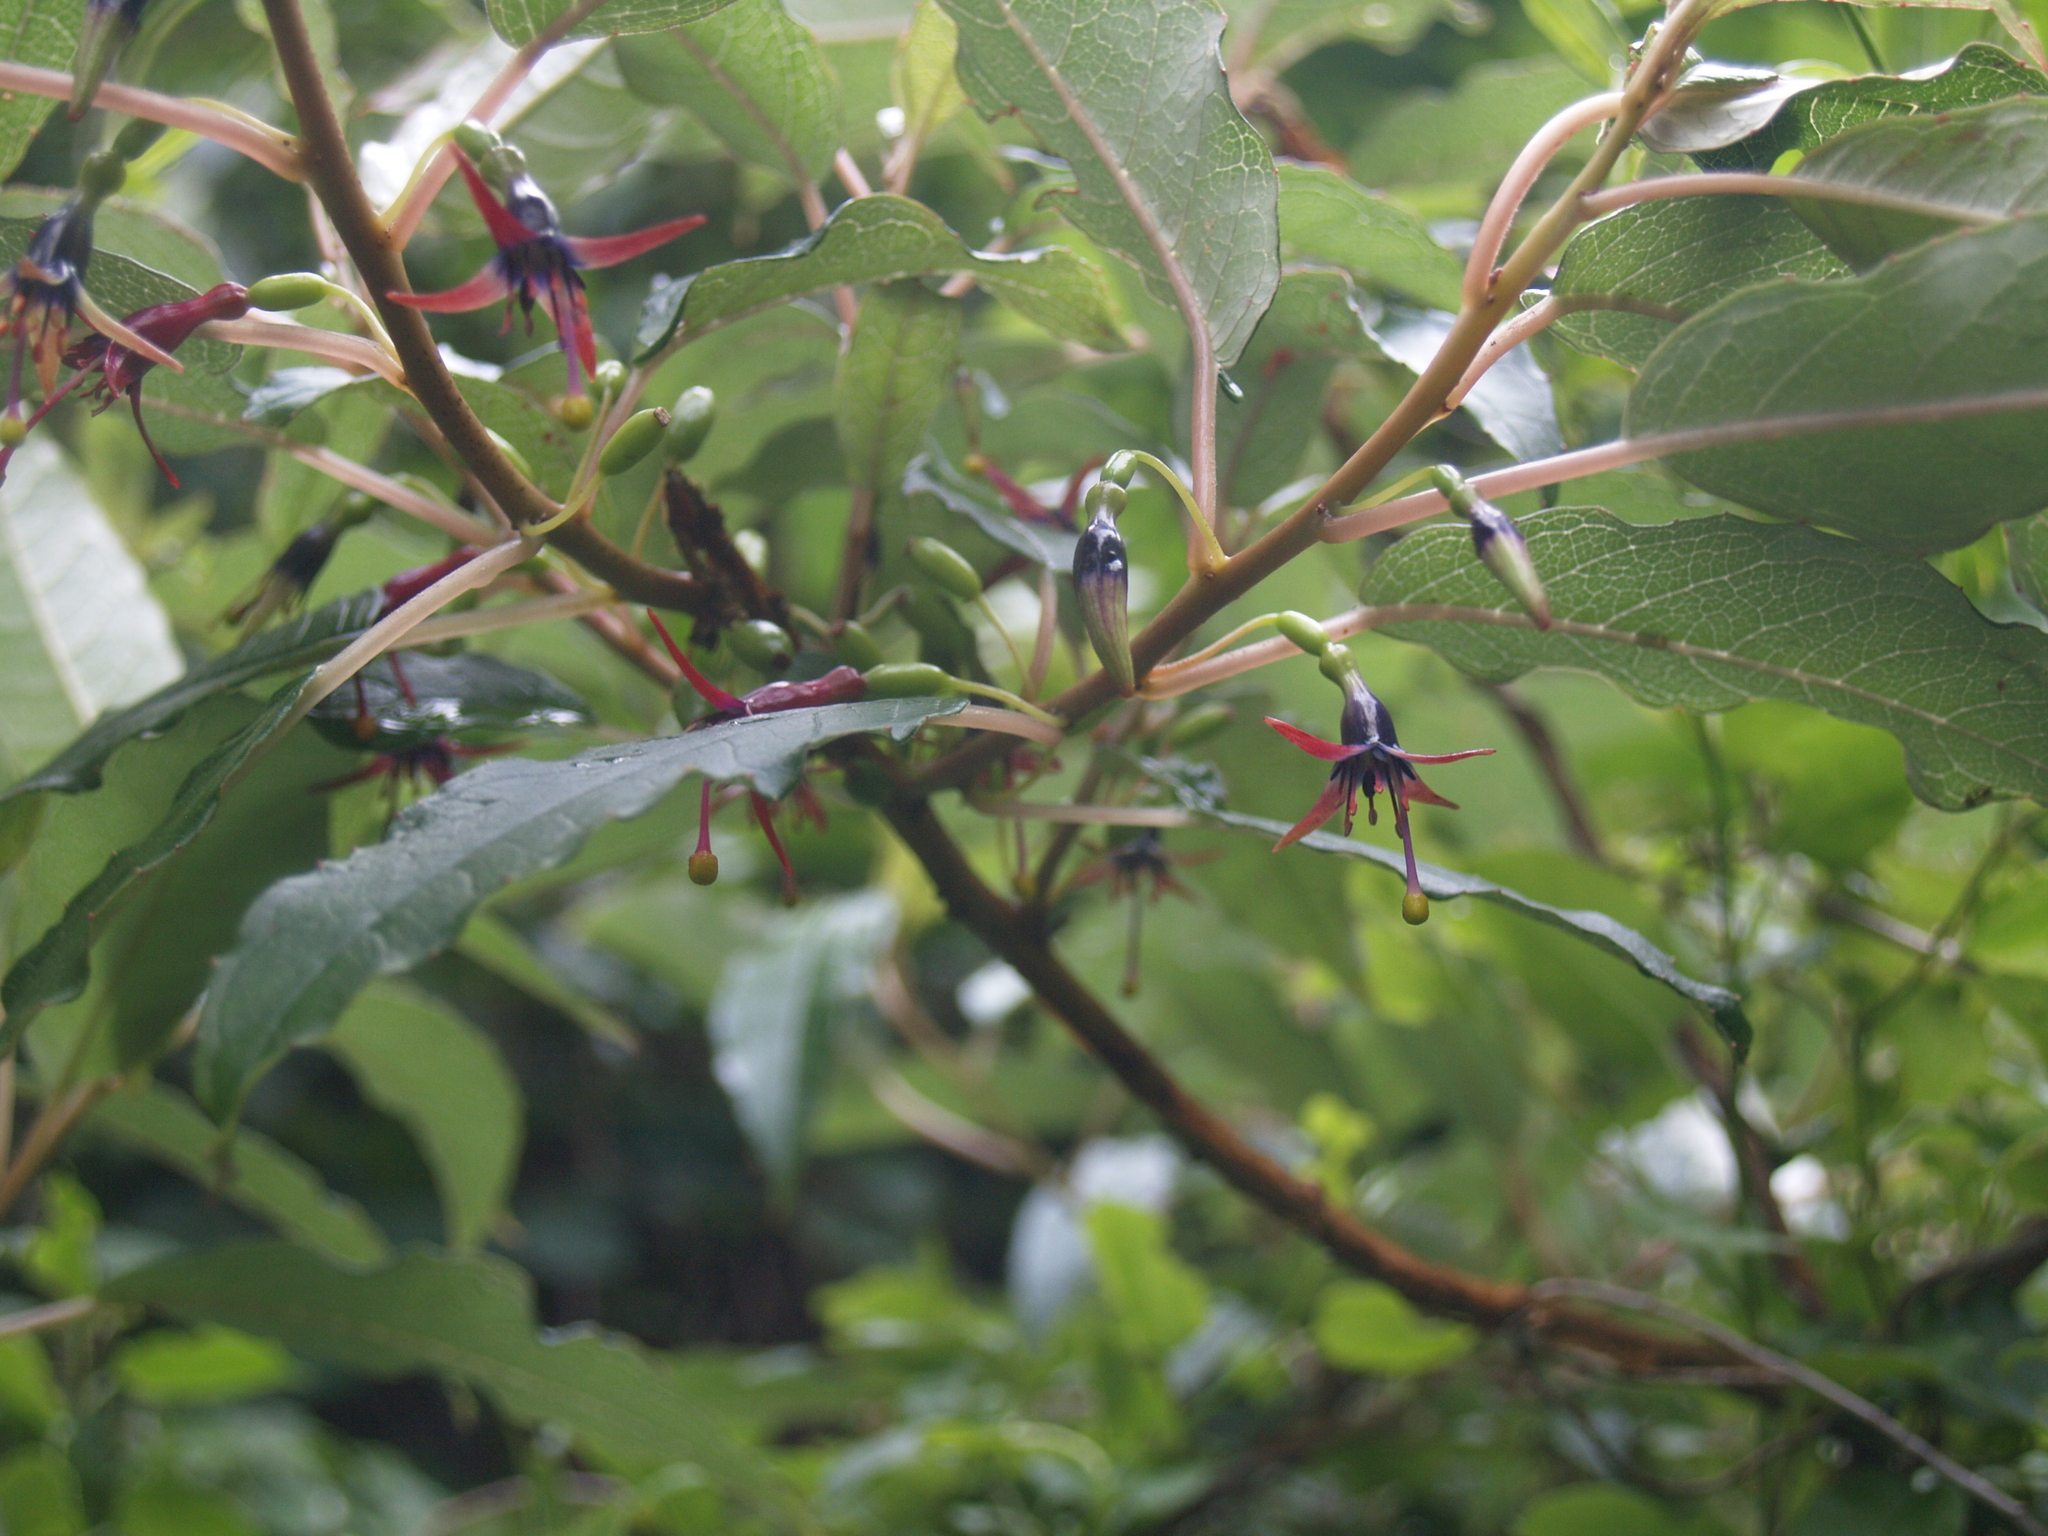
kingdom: Plantae
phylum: Tracheophyta
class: Magnoliopsida
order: Myrtales
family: Onagraceae
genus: Fuchsia
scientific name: Fuchsia excorticata
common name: Tree fuchsia
